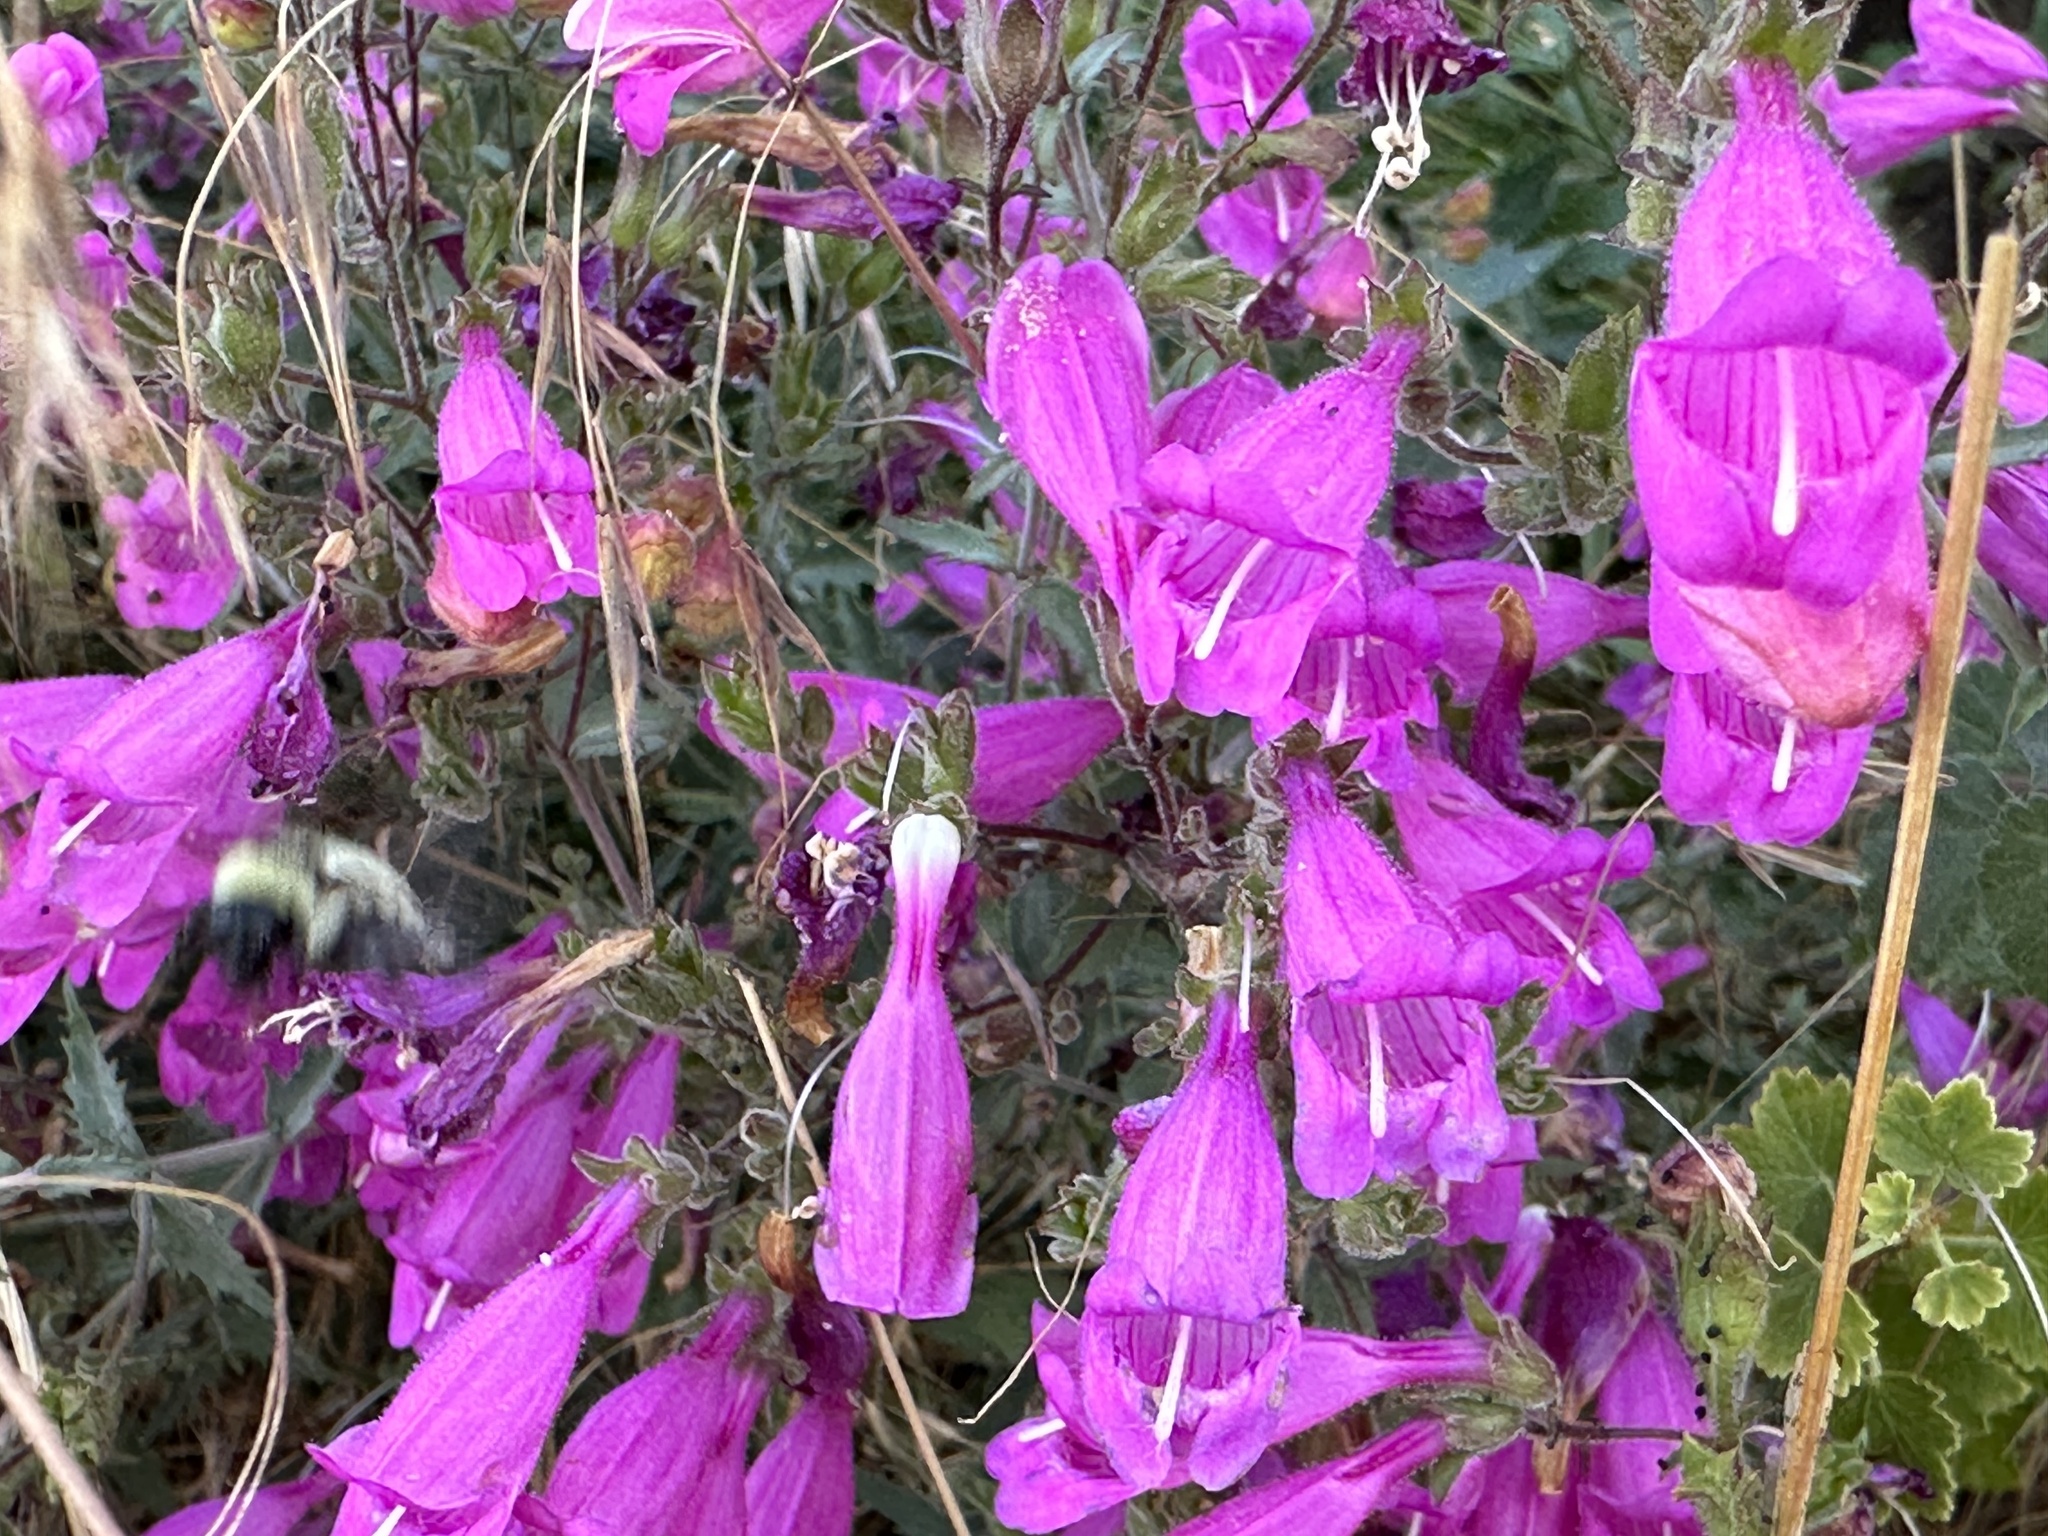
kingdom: Plantae
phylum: Tracheophyta
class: Magnoliopsida
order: Lamiales
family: Plantaginaceae
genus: Penstemon
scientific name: Penstemon richardsonii
